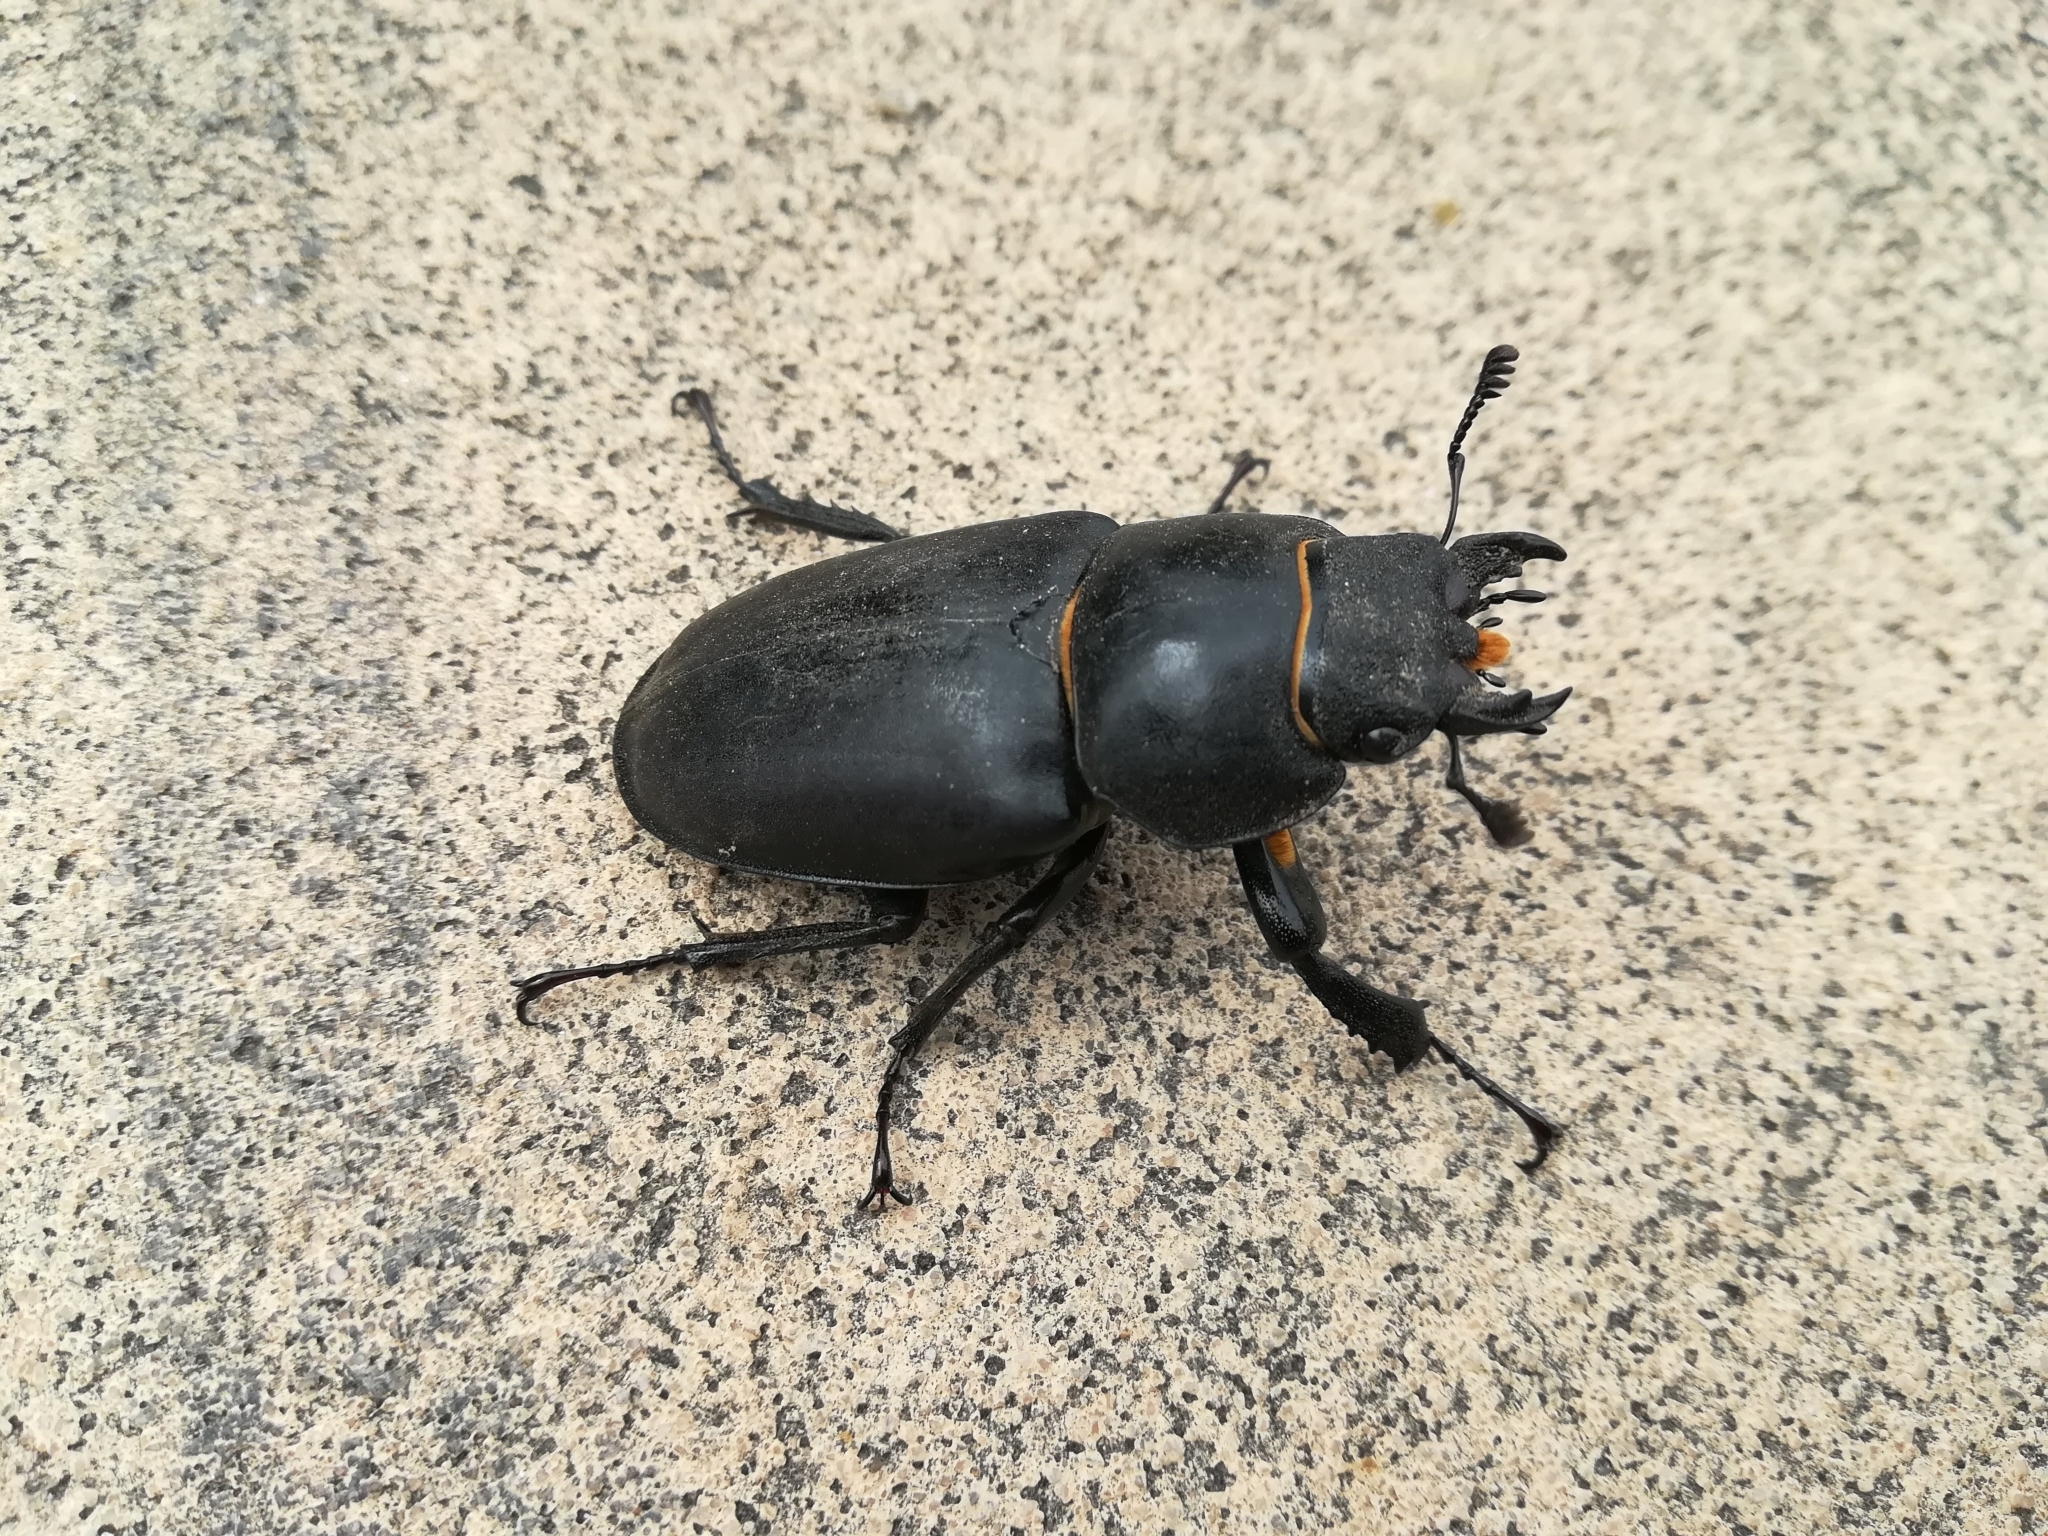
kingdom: Animalia
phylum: Arthropoda
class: Insecta
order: Coleoptera
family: Lucanidae
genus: Lucanus
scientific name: Lucanus cervus
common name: Stag beetle
